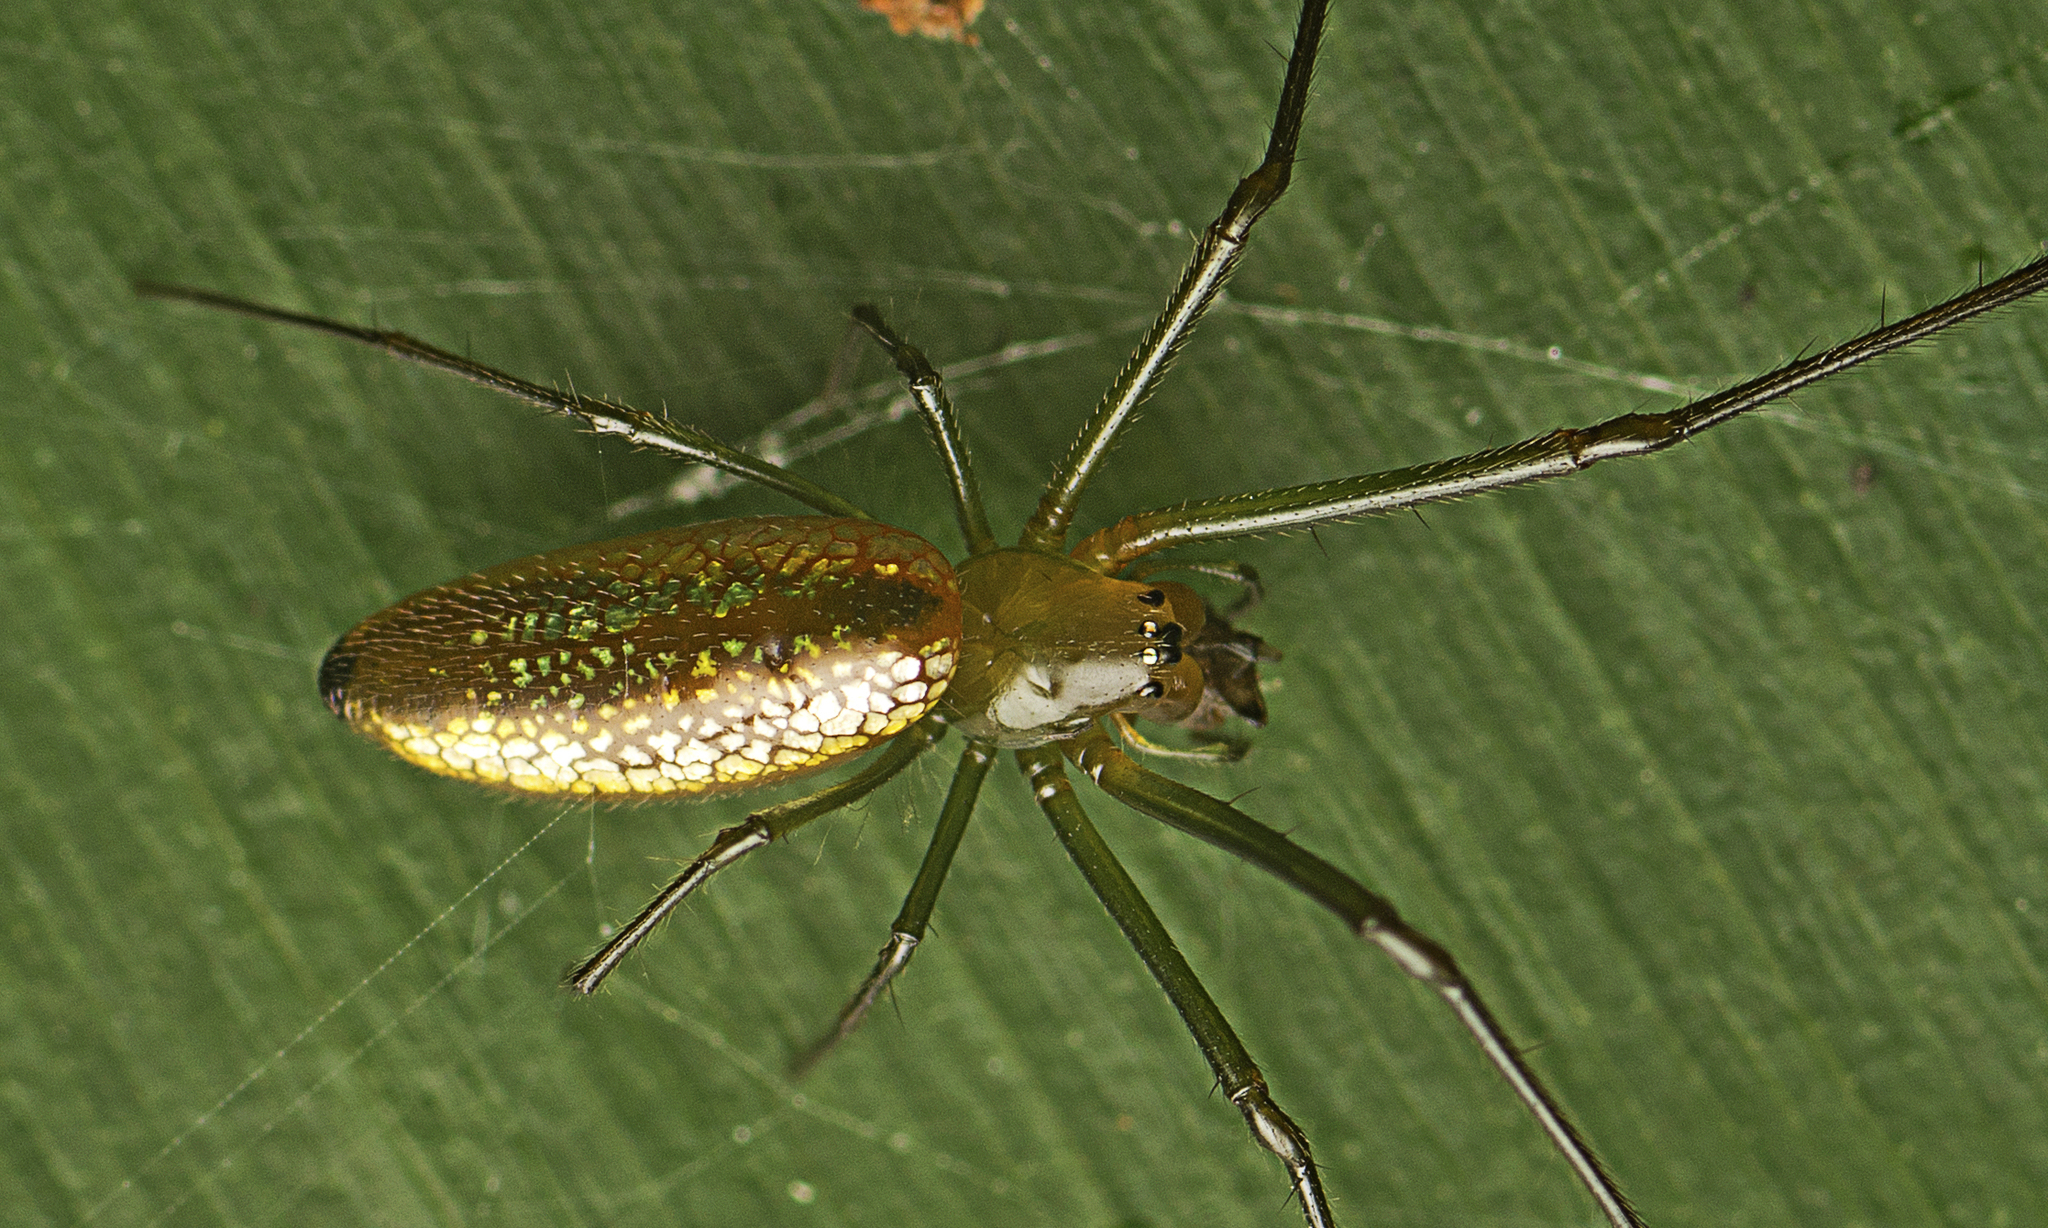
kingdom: Animalia
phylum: Arthropoda
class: Arachnida
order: Araneae
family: Tetragnathidae
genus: Mesida
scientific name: Mesida argentiopunctata
